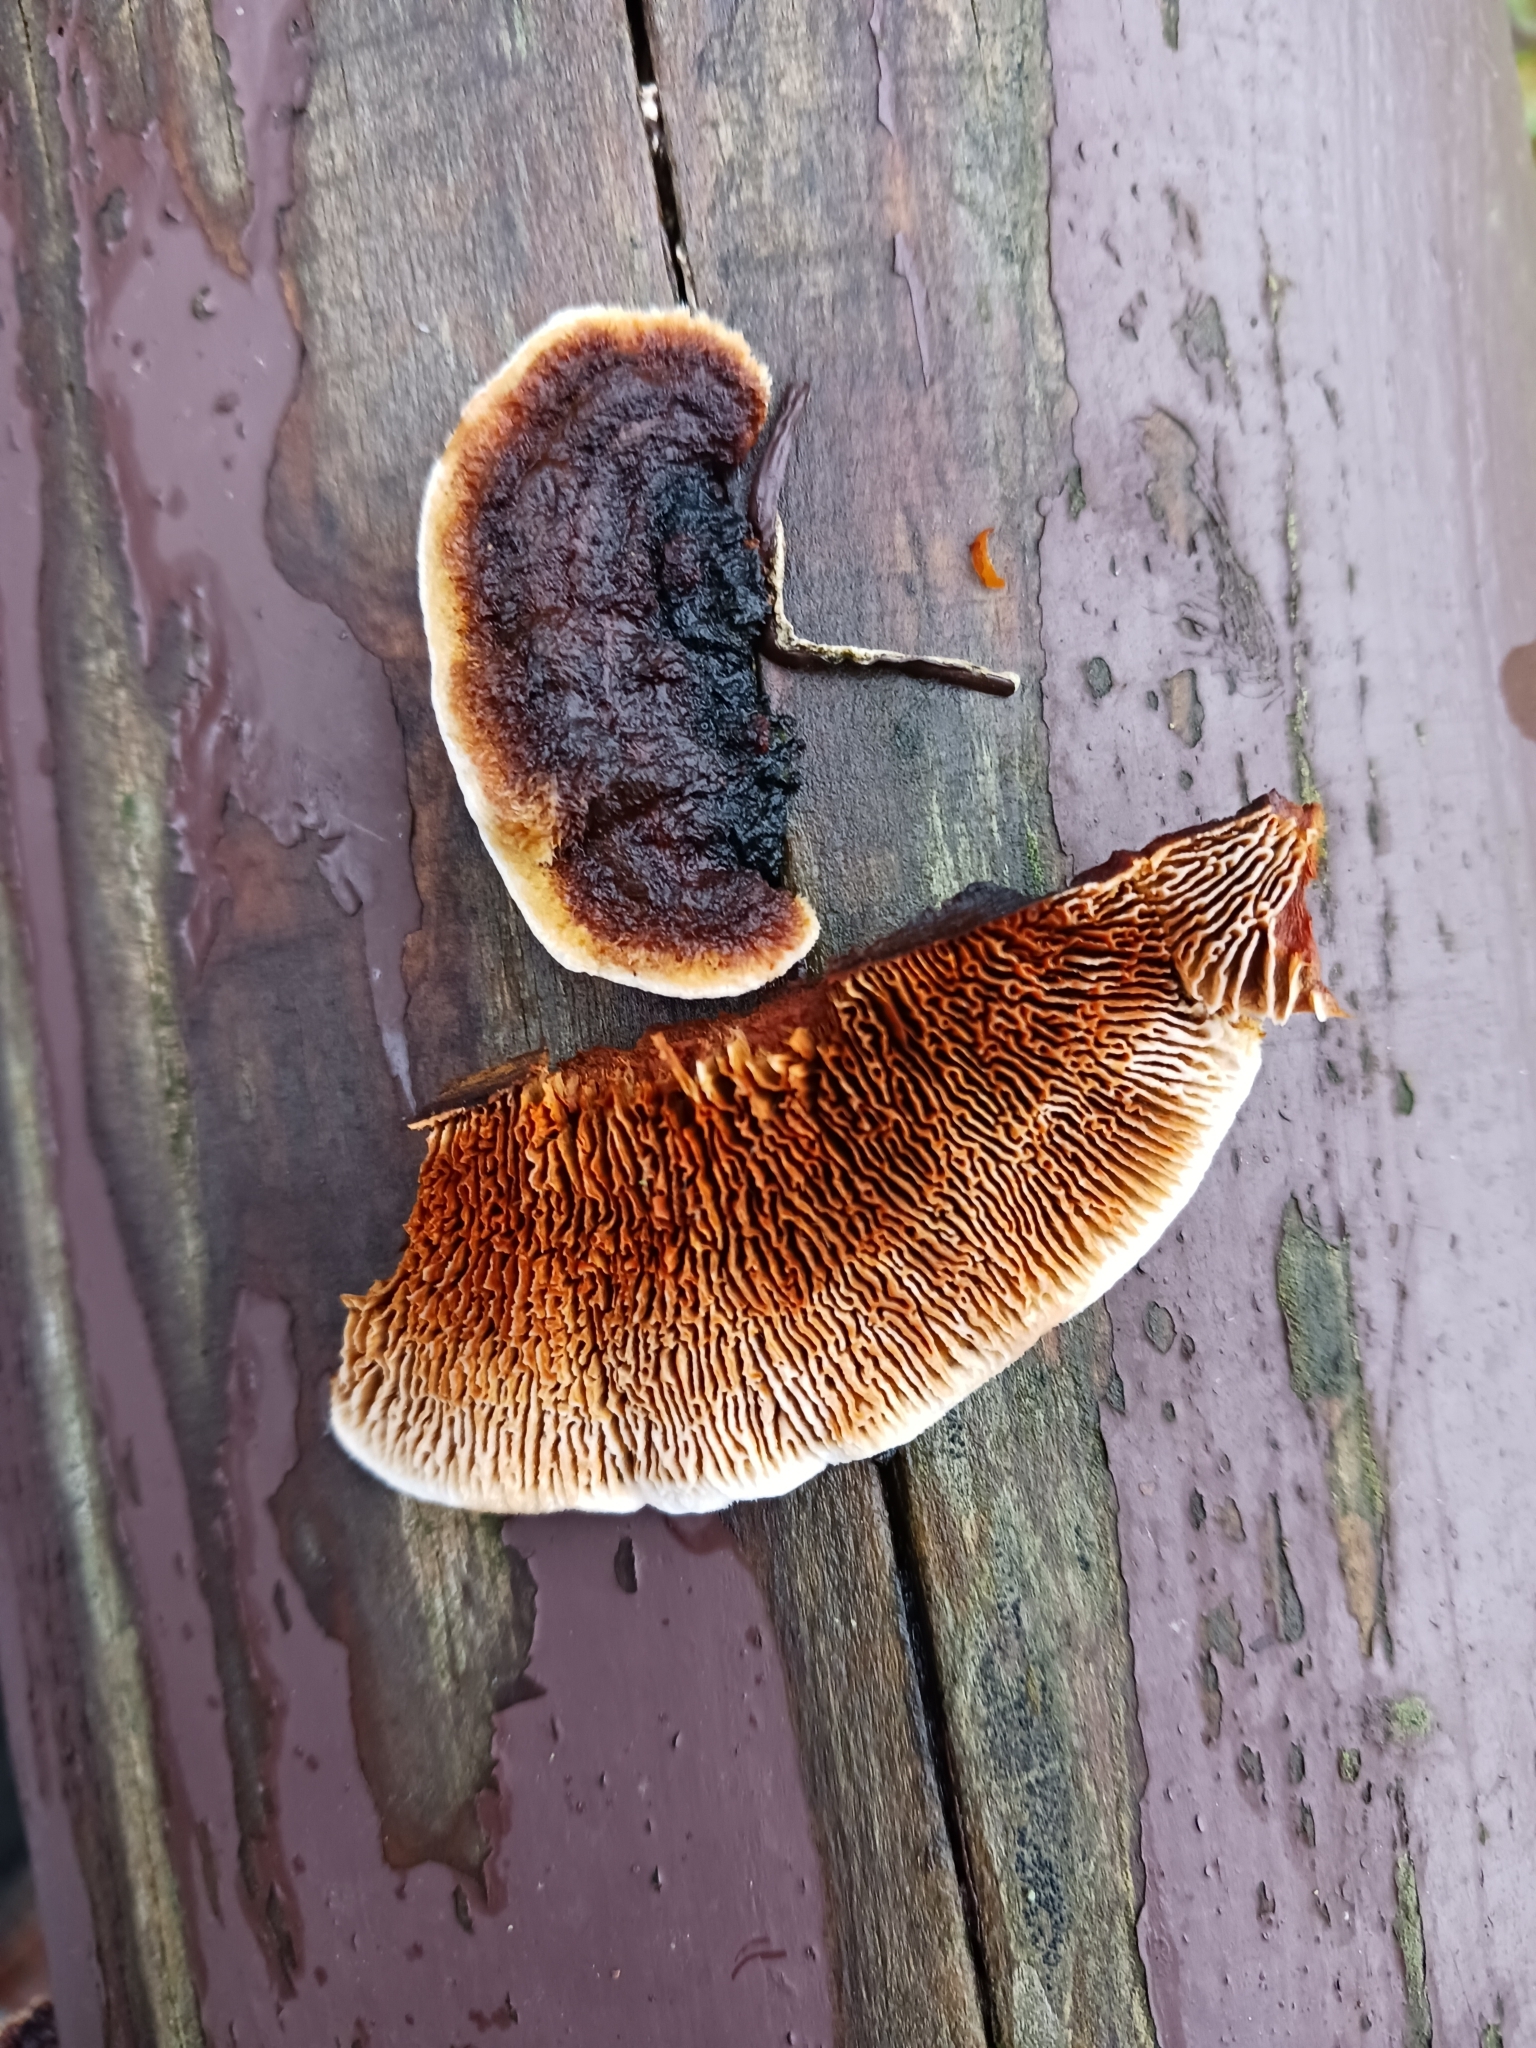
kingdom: Fungi
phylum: Basidiomycota
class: Agaricomycetes
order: Gloeophyllales
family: Gloeophyllaceae
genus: Gloeophyllum
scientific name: Gloeophyllum sepiarium
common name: Conifer mazegill
